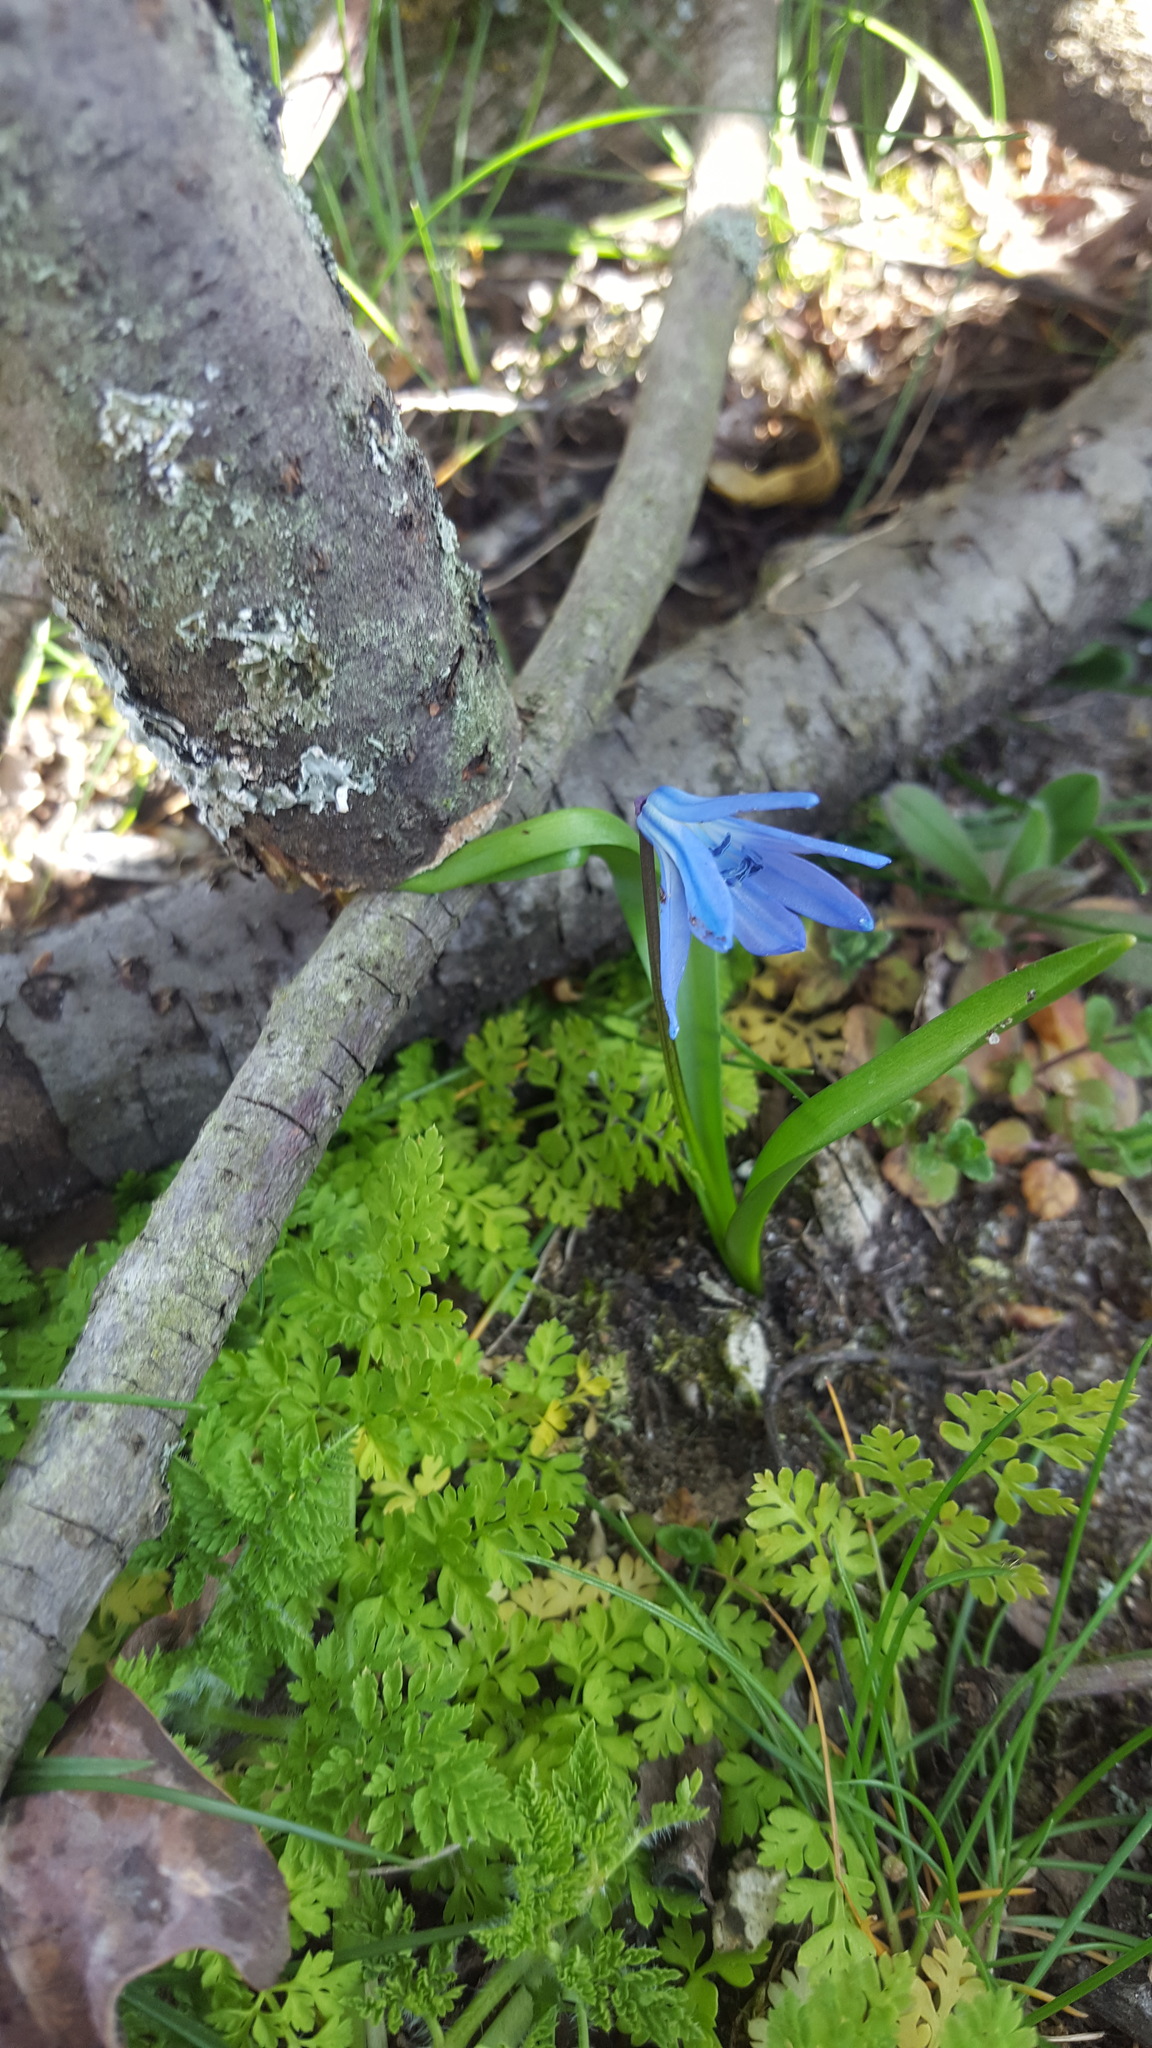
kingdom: Plantae
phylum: Tracheophyta
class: Liliopsida
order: Asparagales
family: Asparagaceae
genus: Scilla
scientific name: Scilla siberica
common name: Siberian squill
